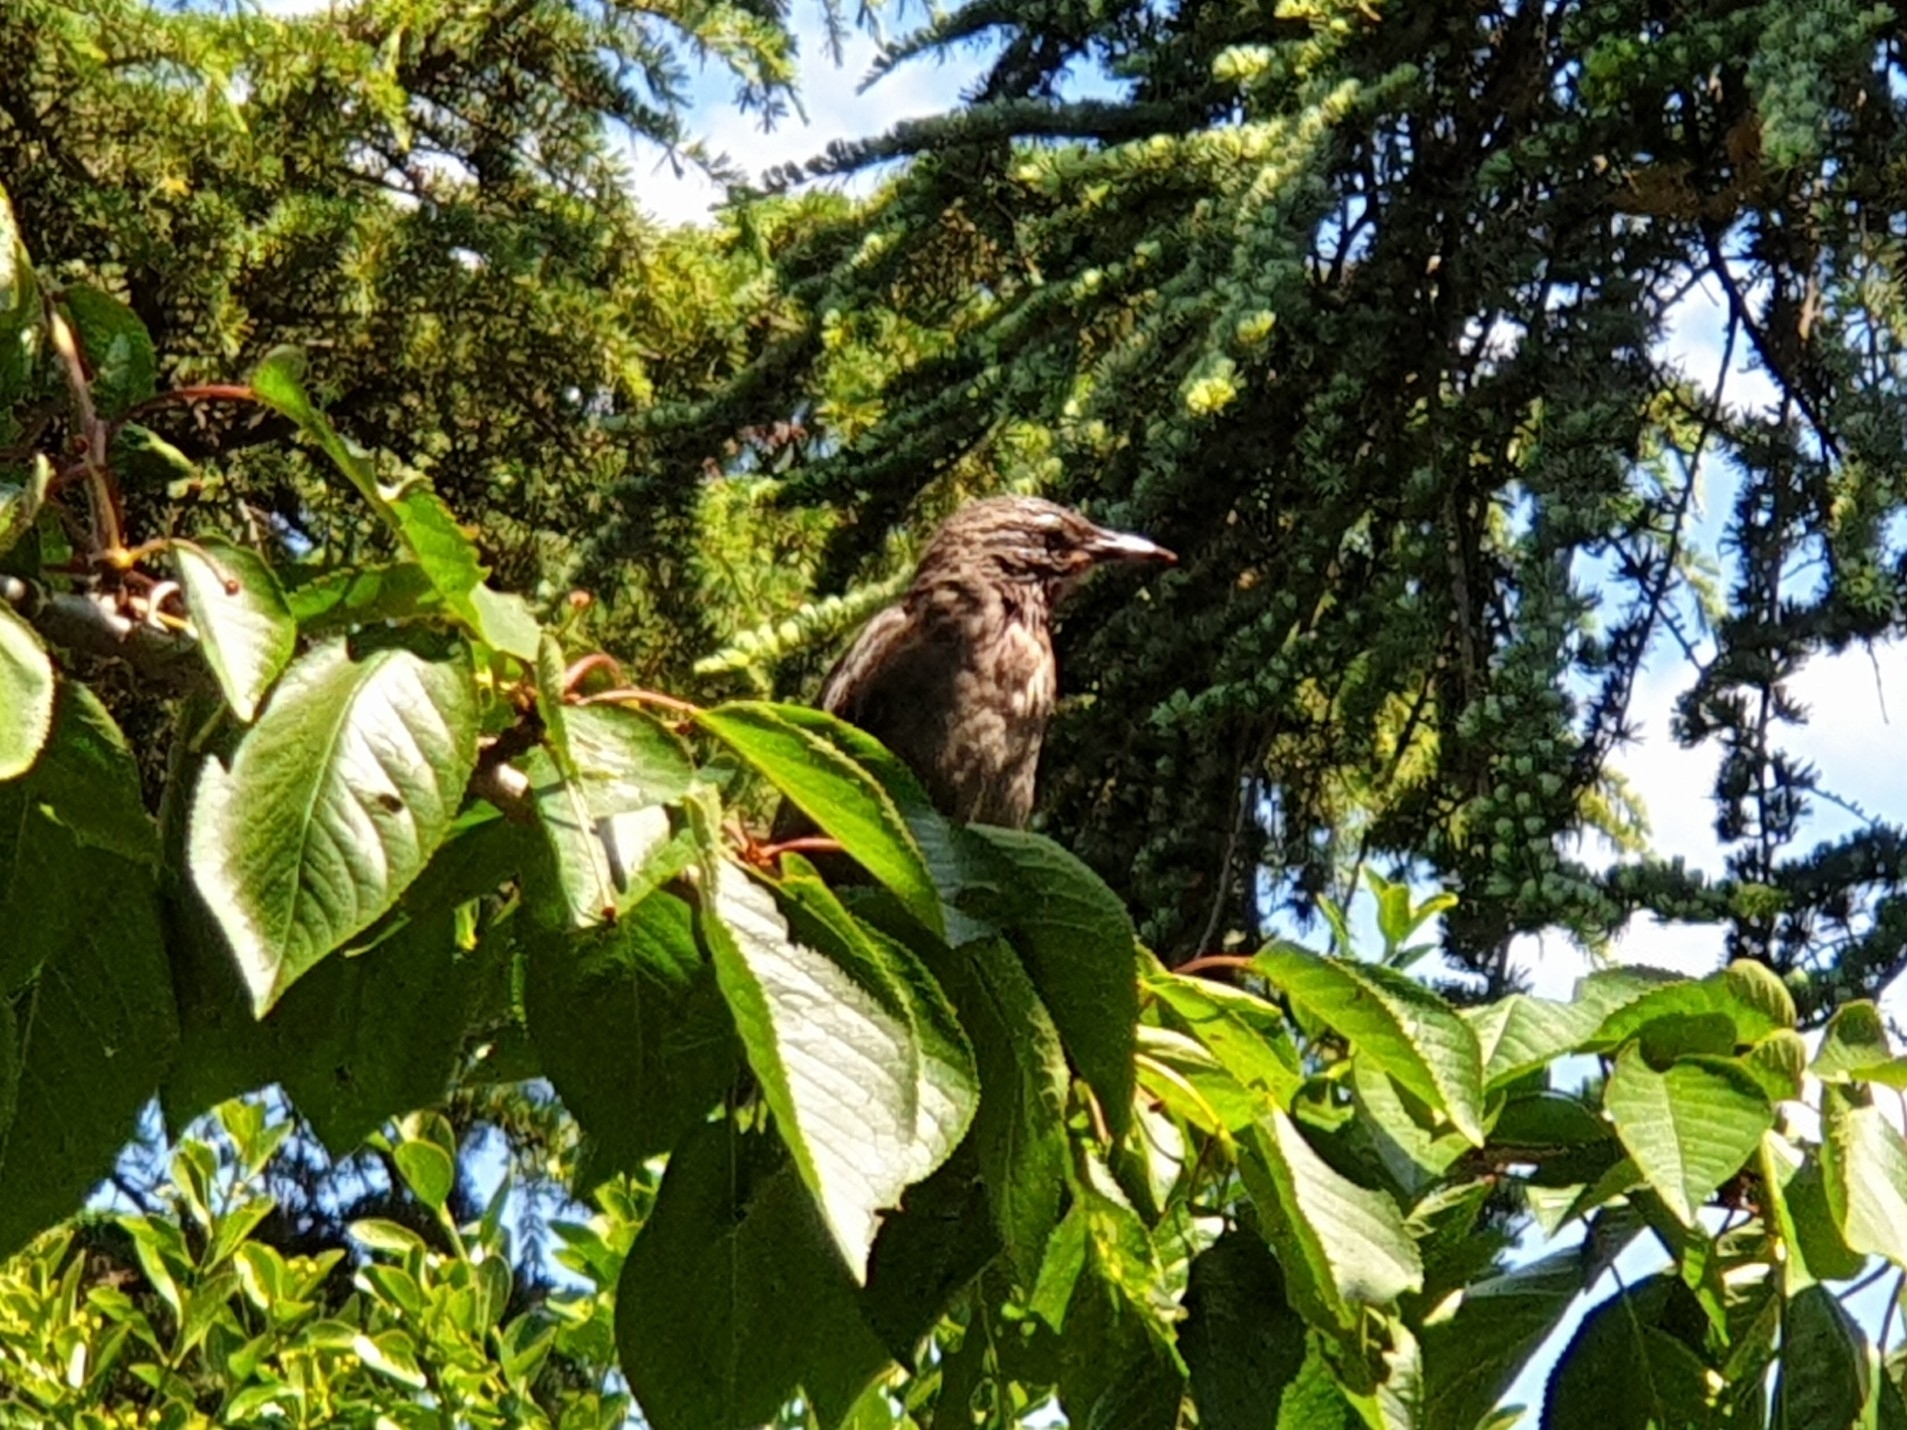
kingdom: Animalia
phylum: Chordata
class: Aves
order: Passeriformes
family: Sturnidae
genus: Sturnus
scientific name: Sturnus vulgaris
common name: Common starling
